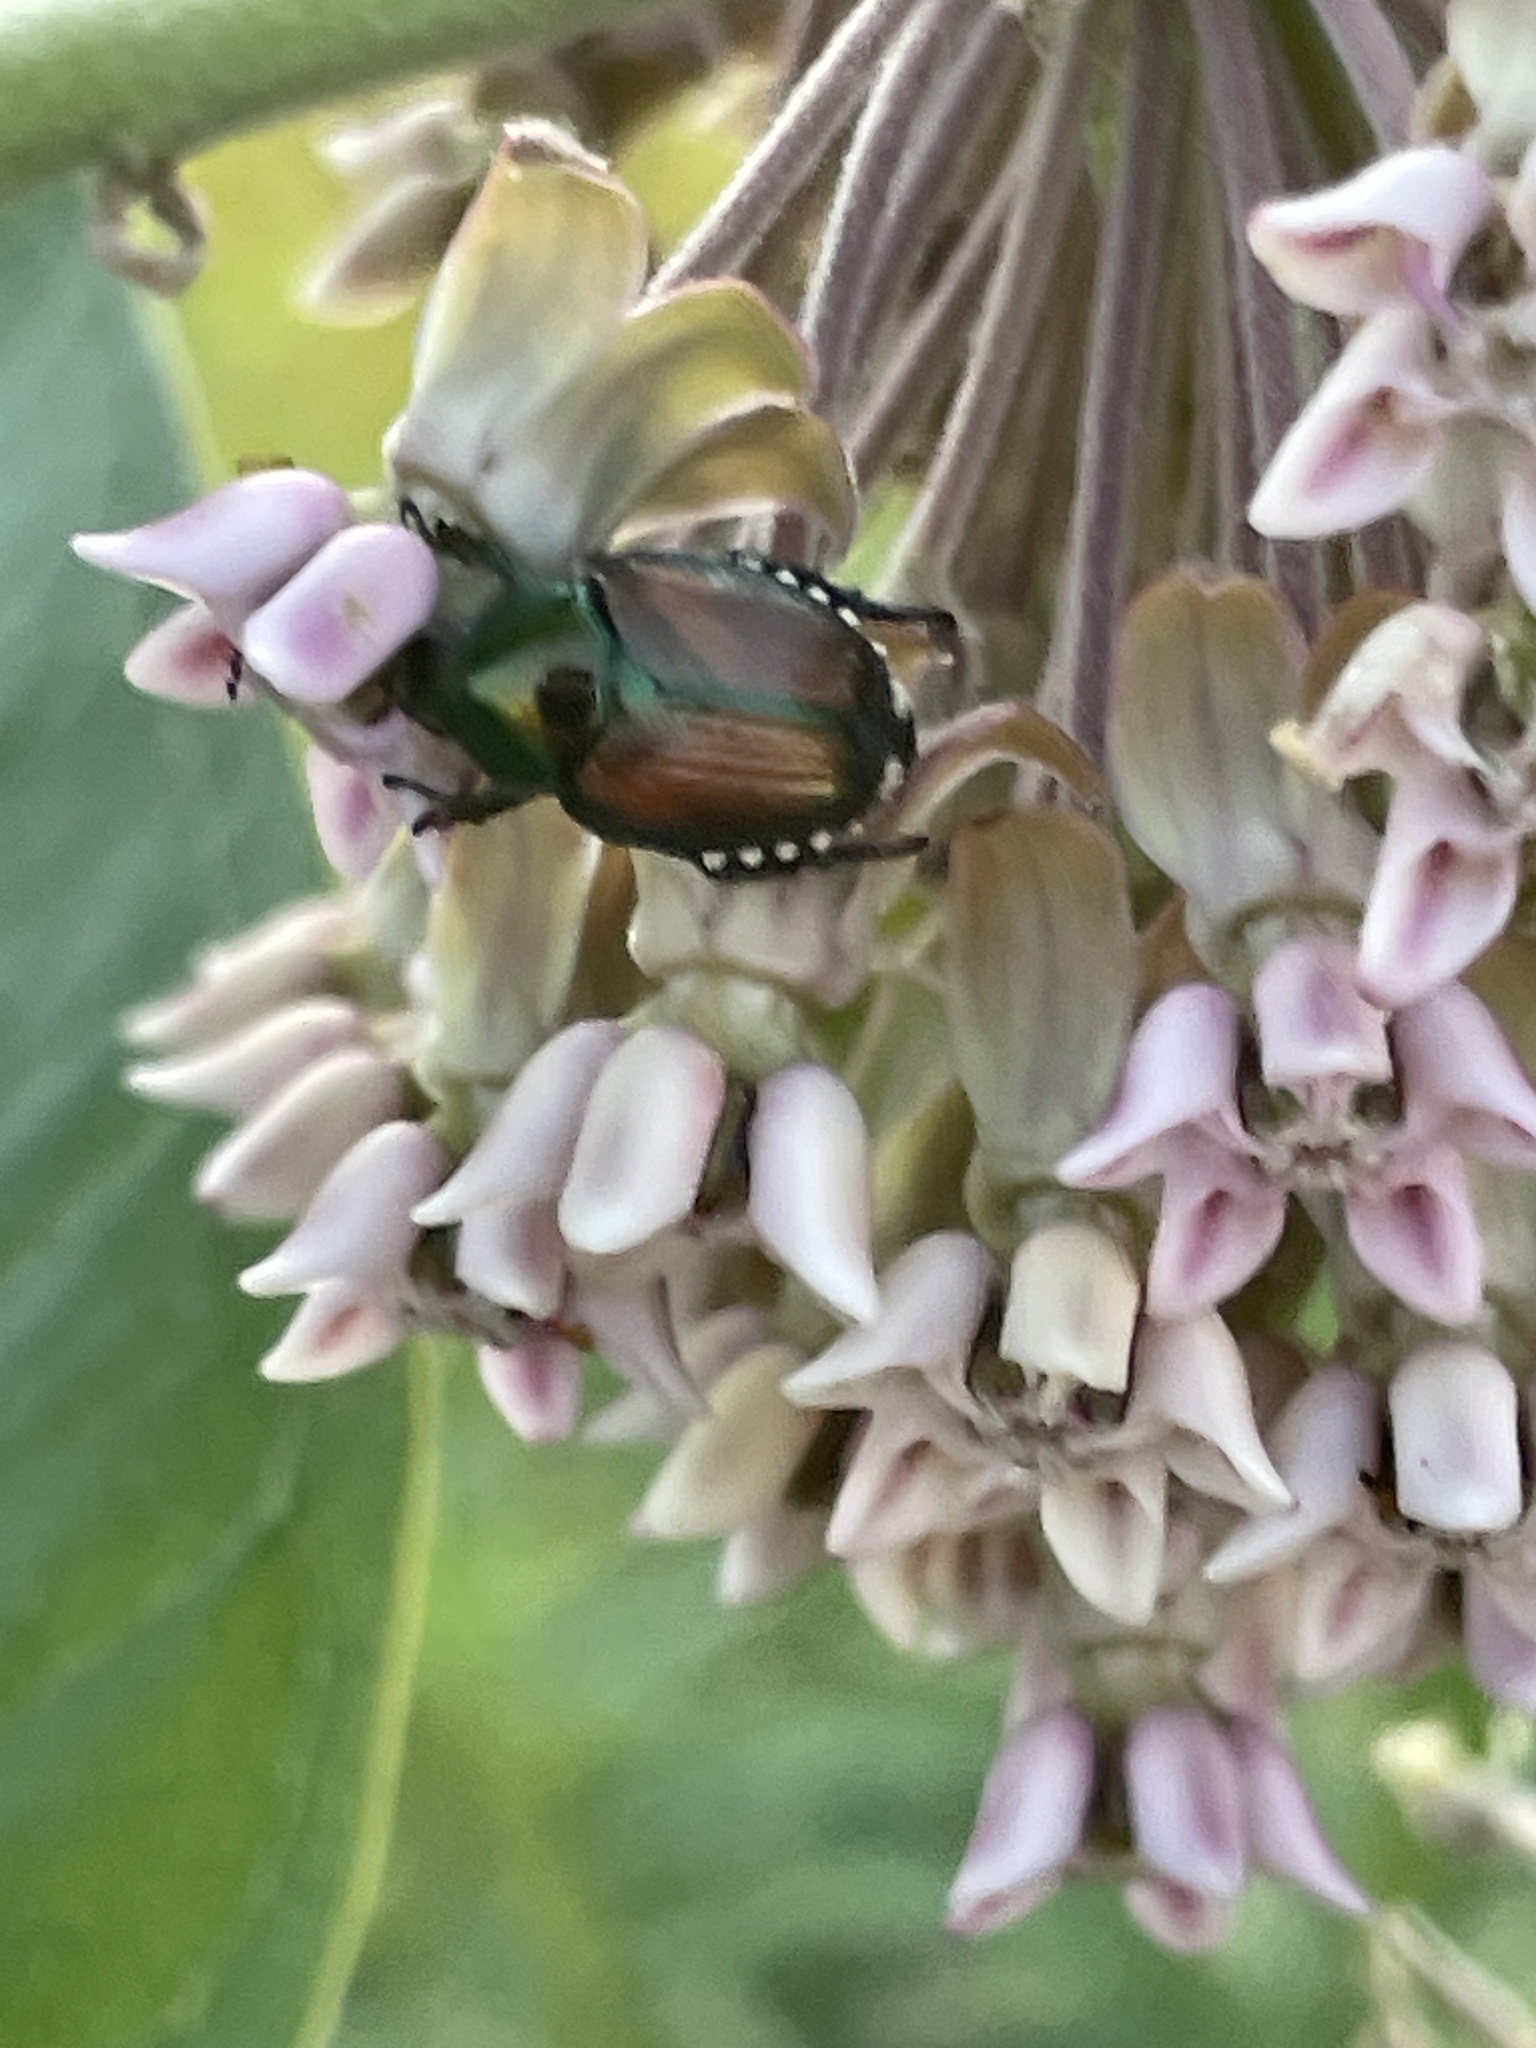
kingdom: Animalia
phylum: Arthropoda
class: Insecta
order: Coleoptera
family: Scarabaeidae
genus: Popillia
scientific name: Popillia japonica
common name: Japanese beetle
